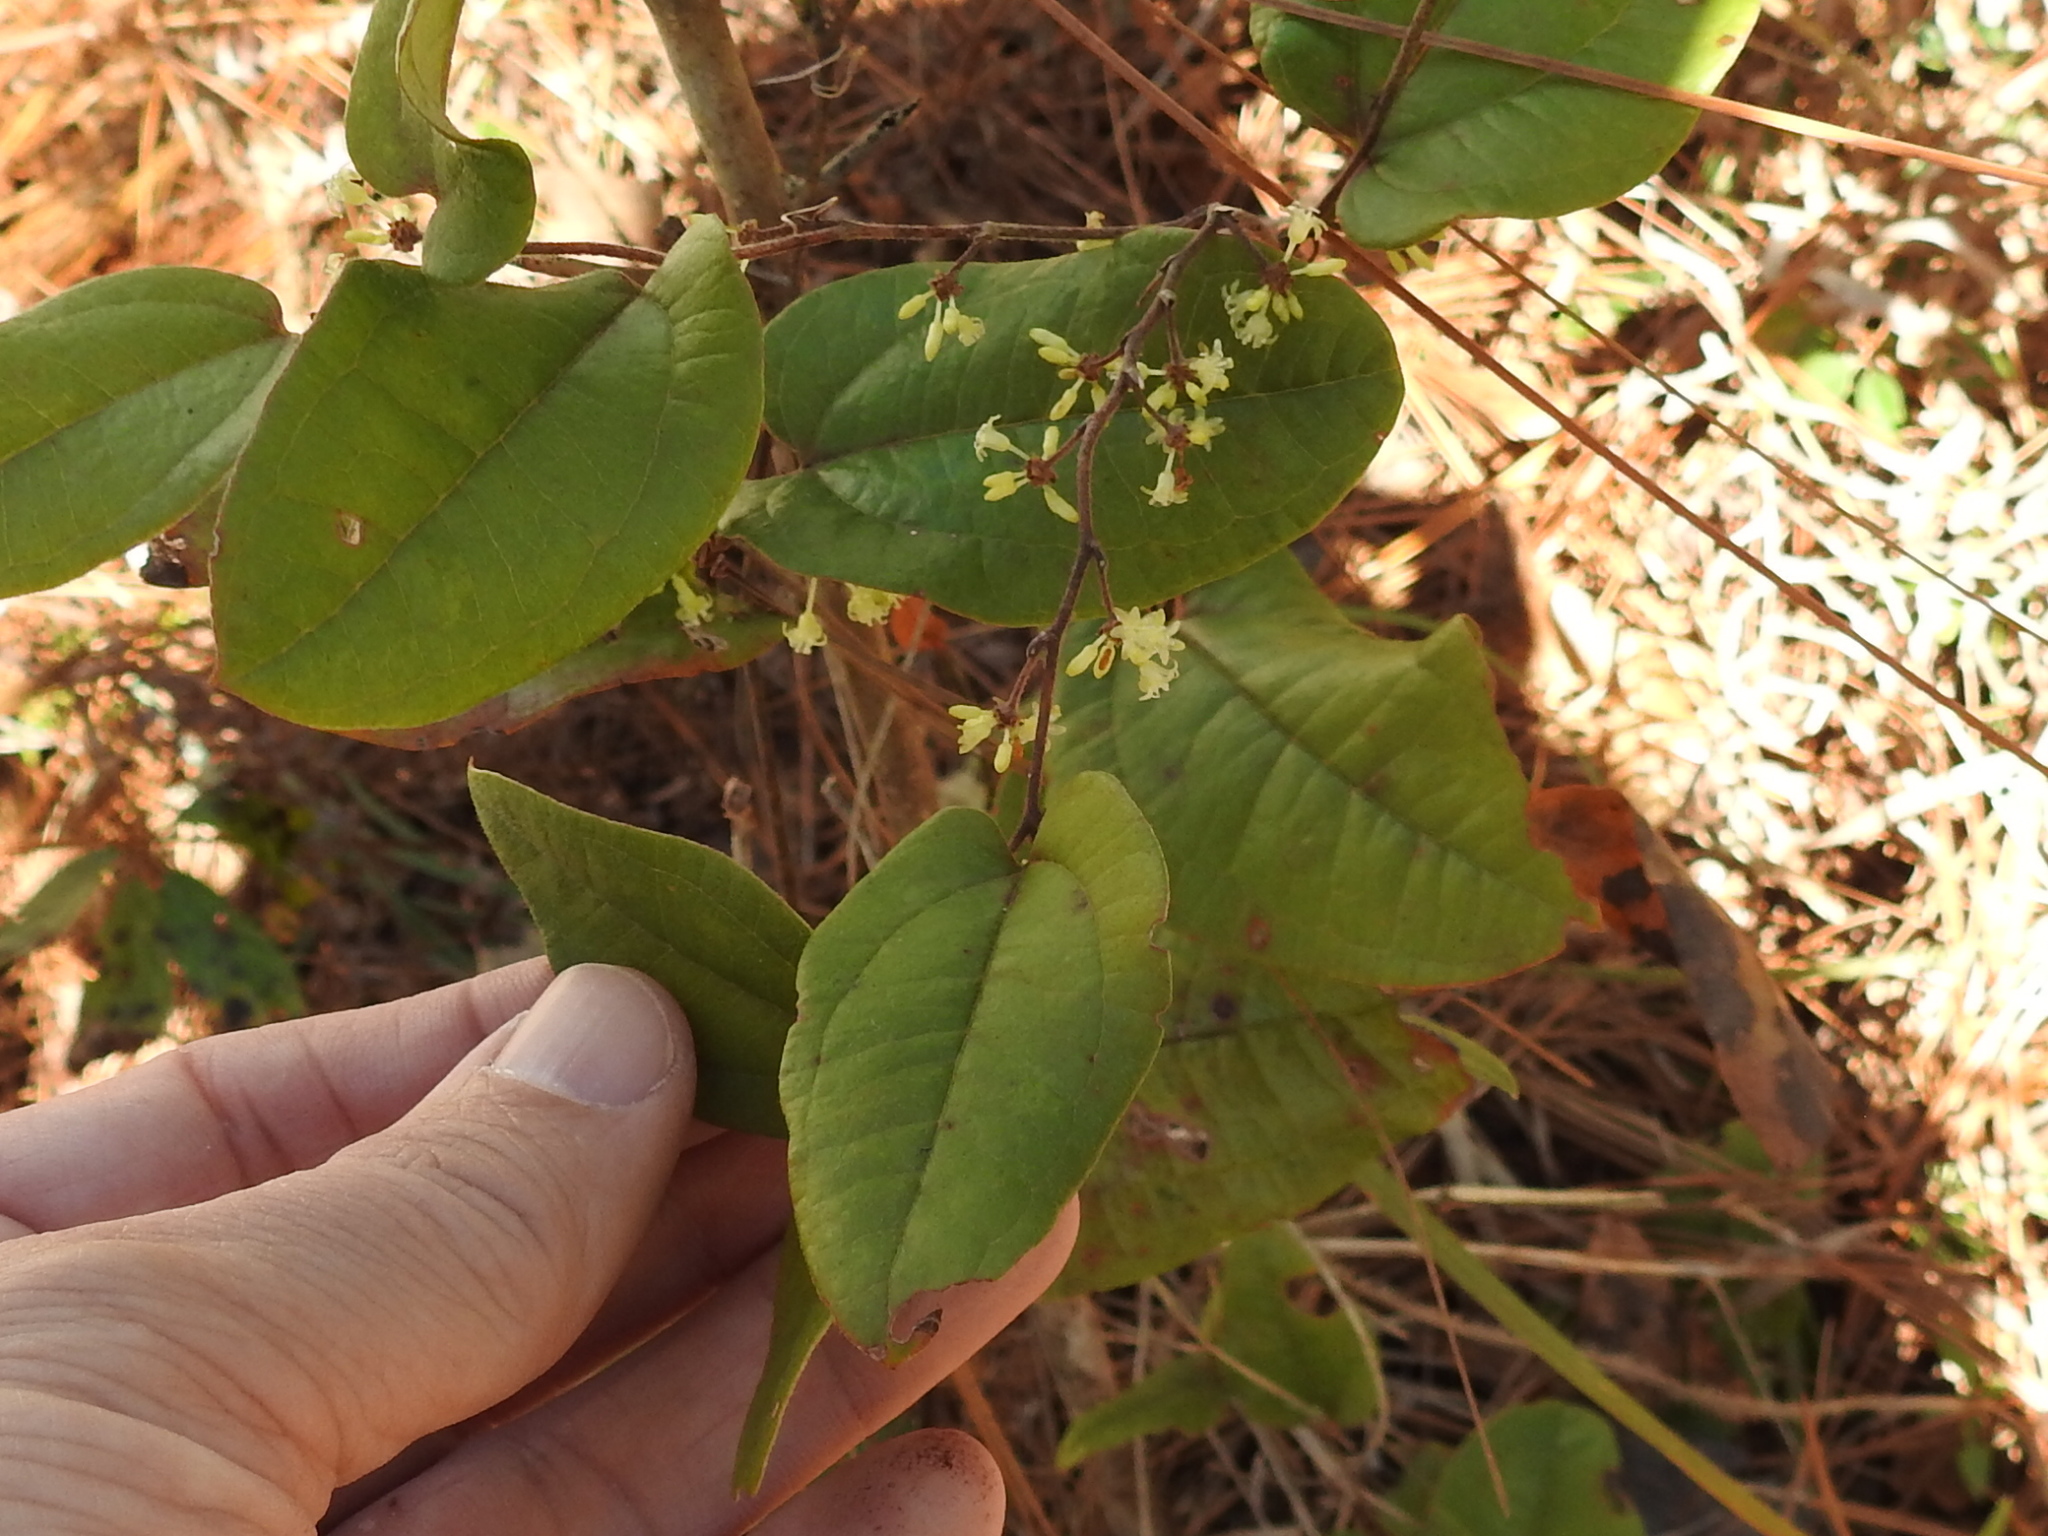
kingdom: Plantae
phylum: Tracheophyta
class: Liliopsida
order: Liliales
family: Smilacaceae
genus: Smilax
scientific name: Smilax pumila
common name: Sarsaparilla-vine
